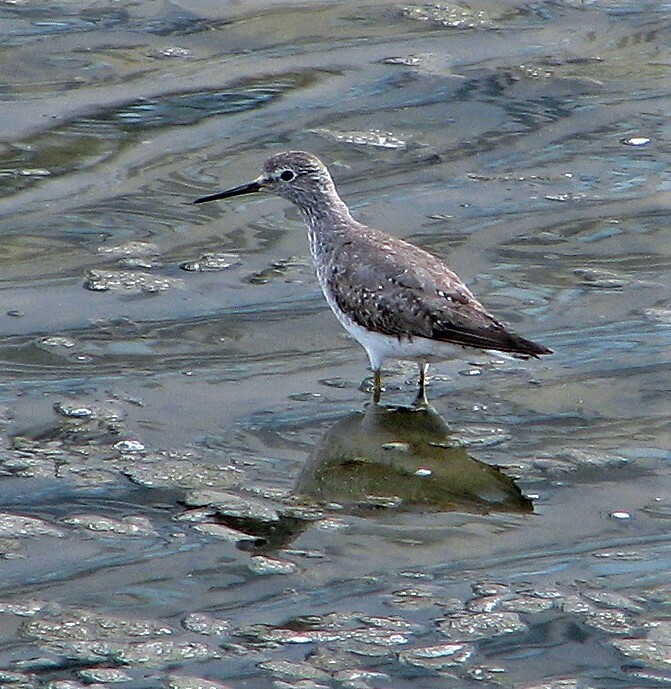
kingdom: Animalia
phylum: Chordata
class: Aves
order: Charadriiformes
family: Scolopacidae
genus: Tringa
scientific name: Tringa flavipes
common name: Lesser yellowlegs
